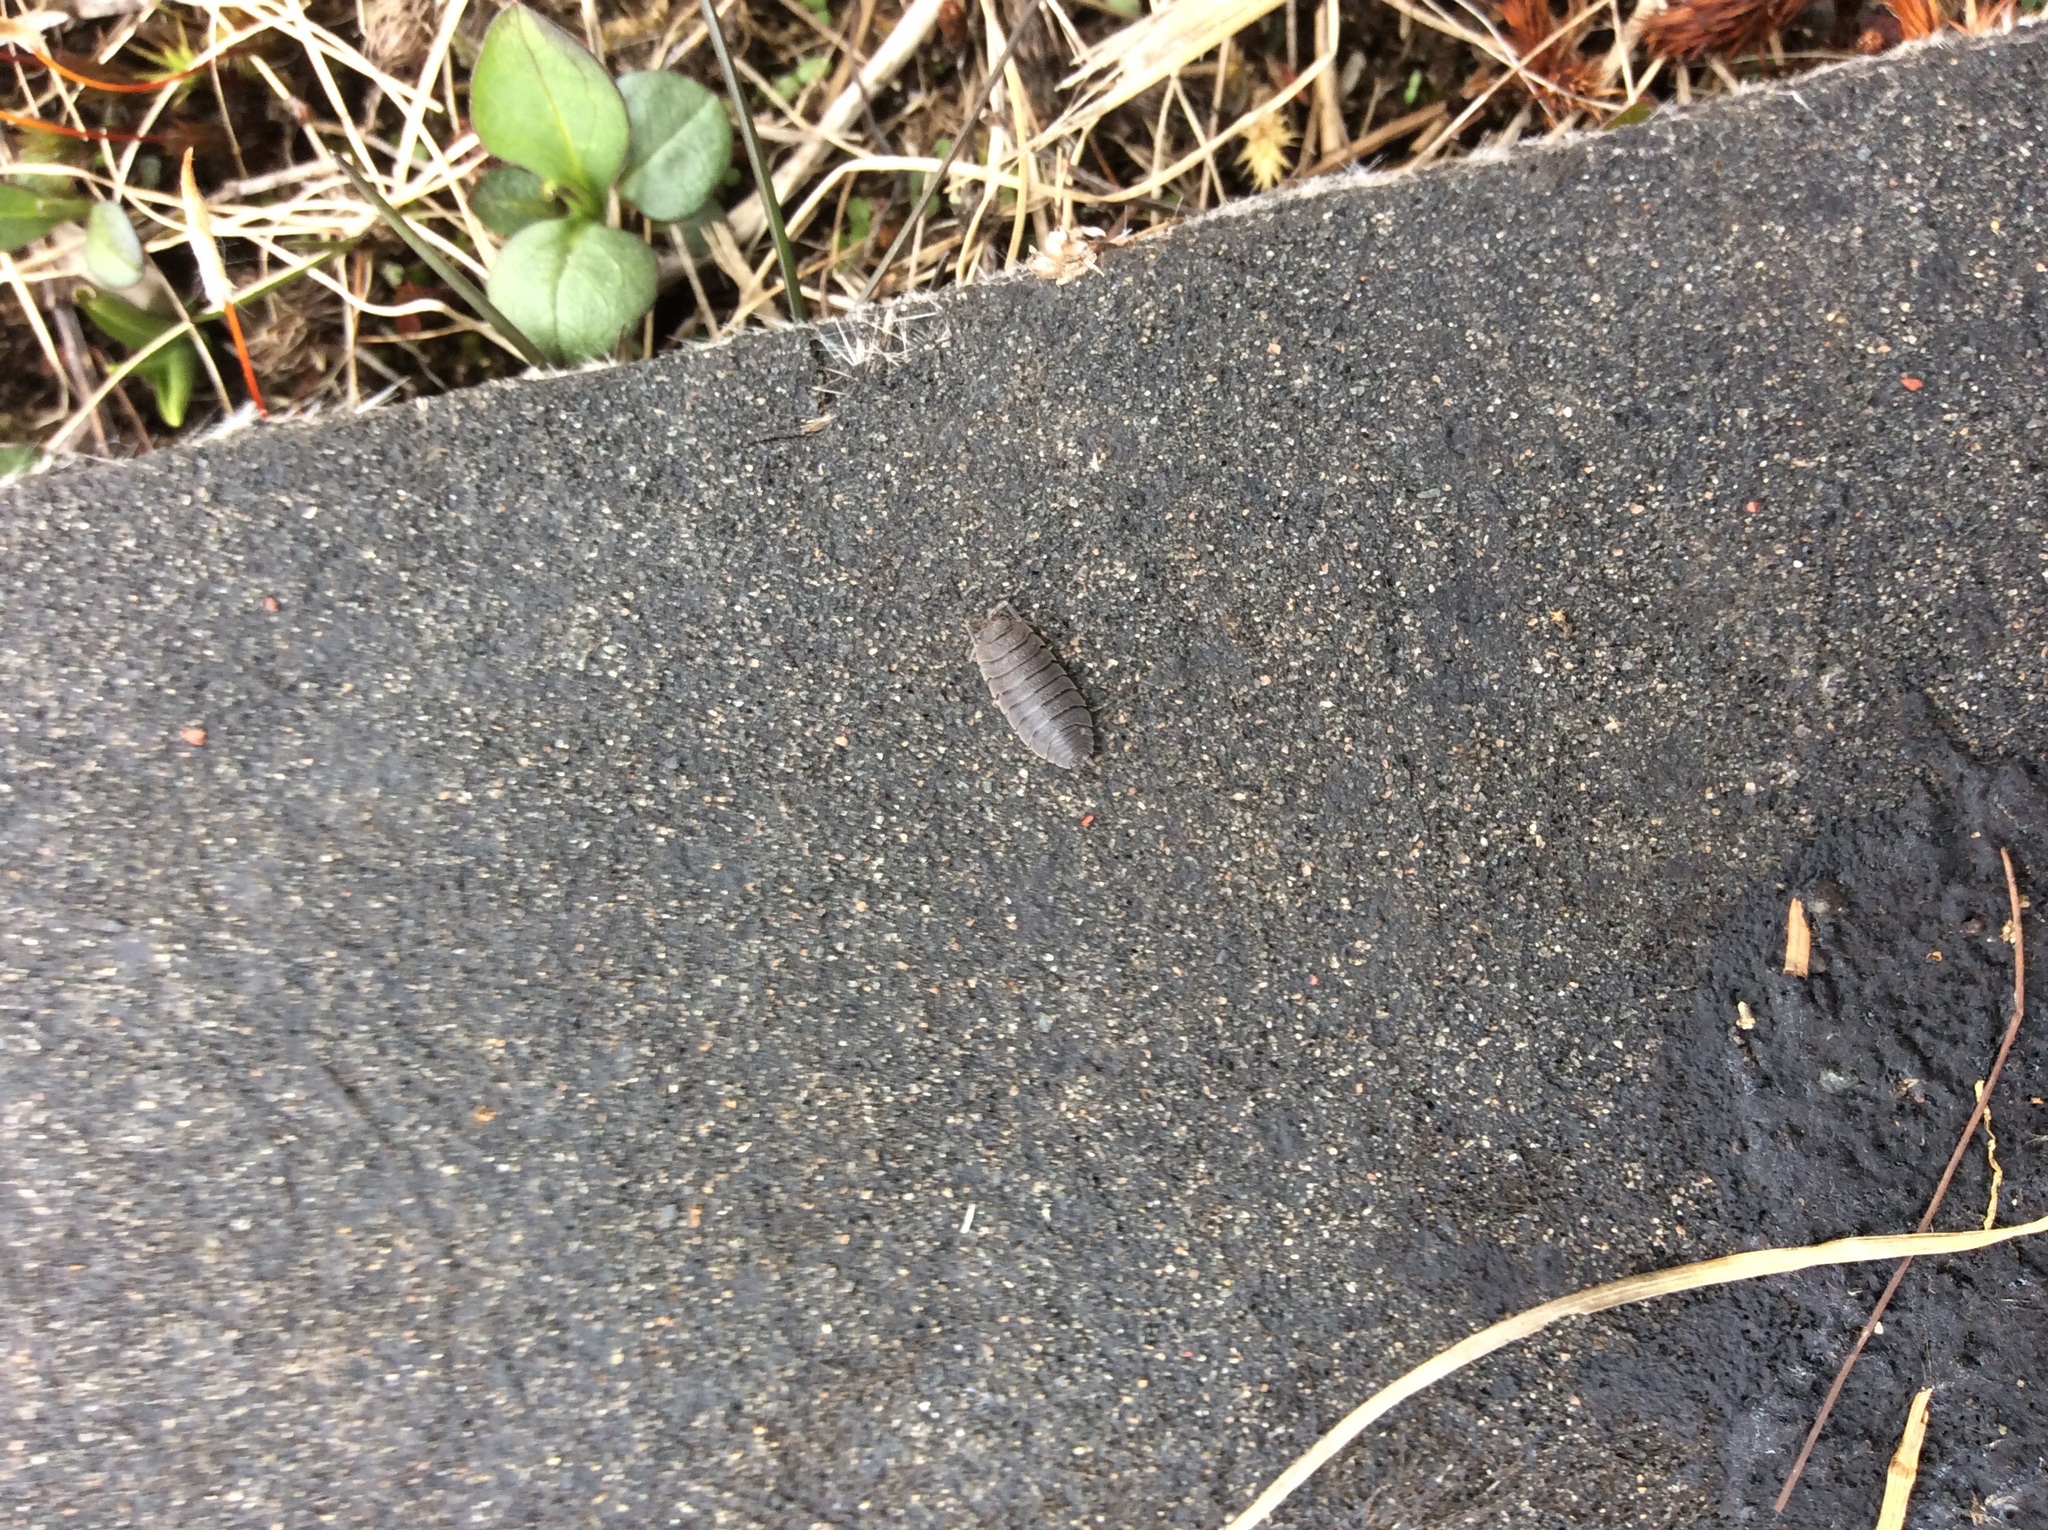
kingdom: Animalia
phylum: Arthropoda
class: Malacostraca
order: Isopoda
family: Porcellionidae
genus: Porcellio
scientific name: Porcellio scaber
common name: Common rough woodlouse
